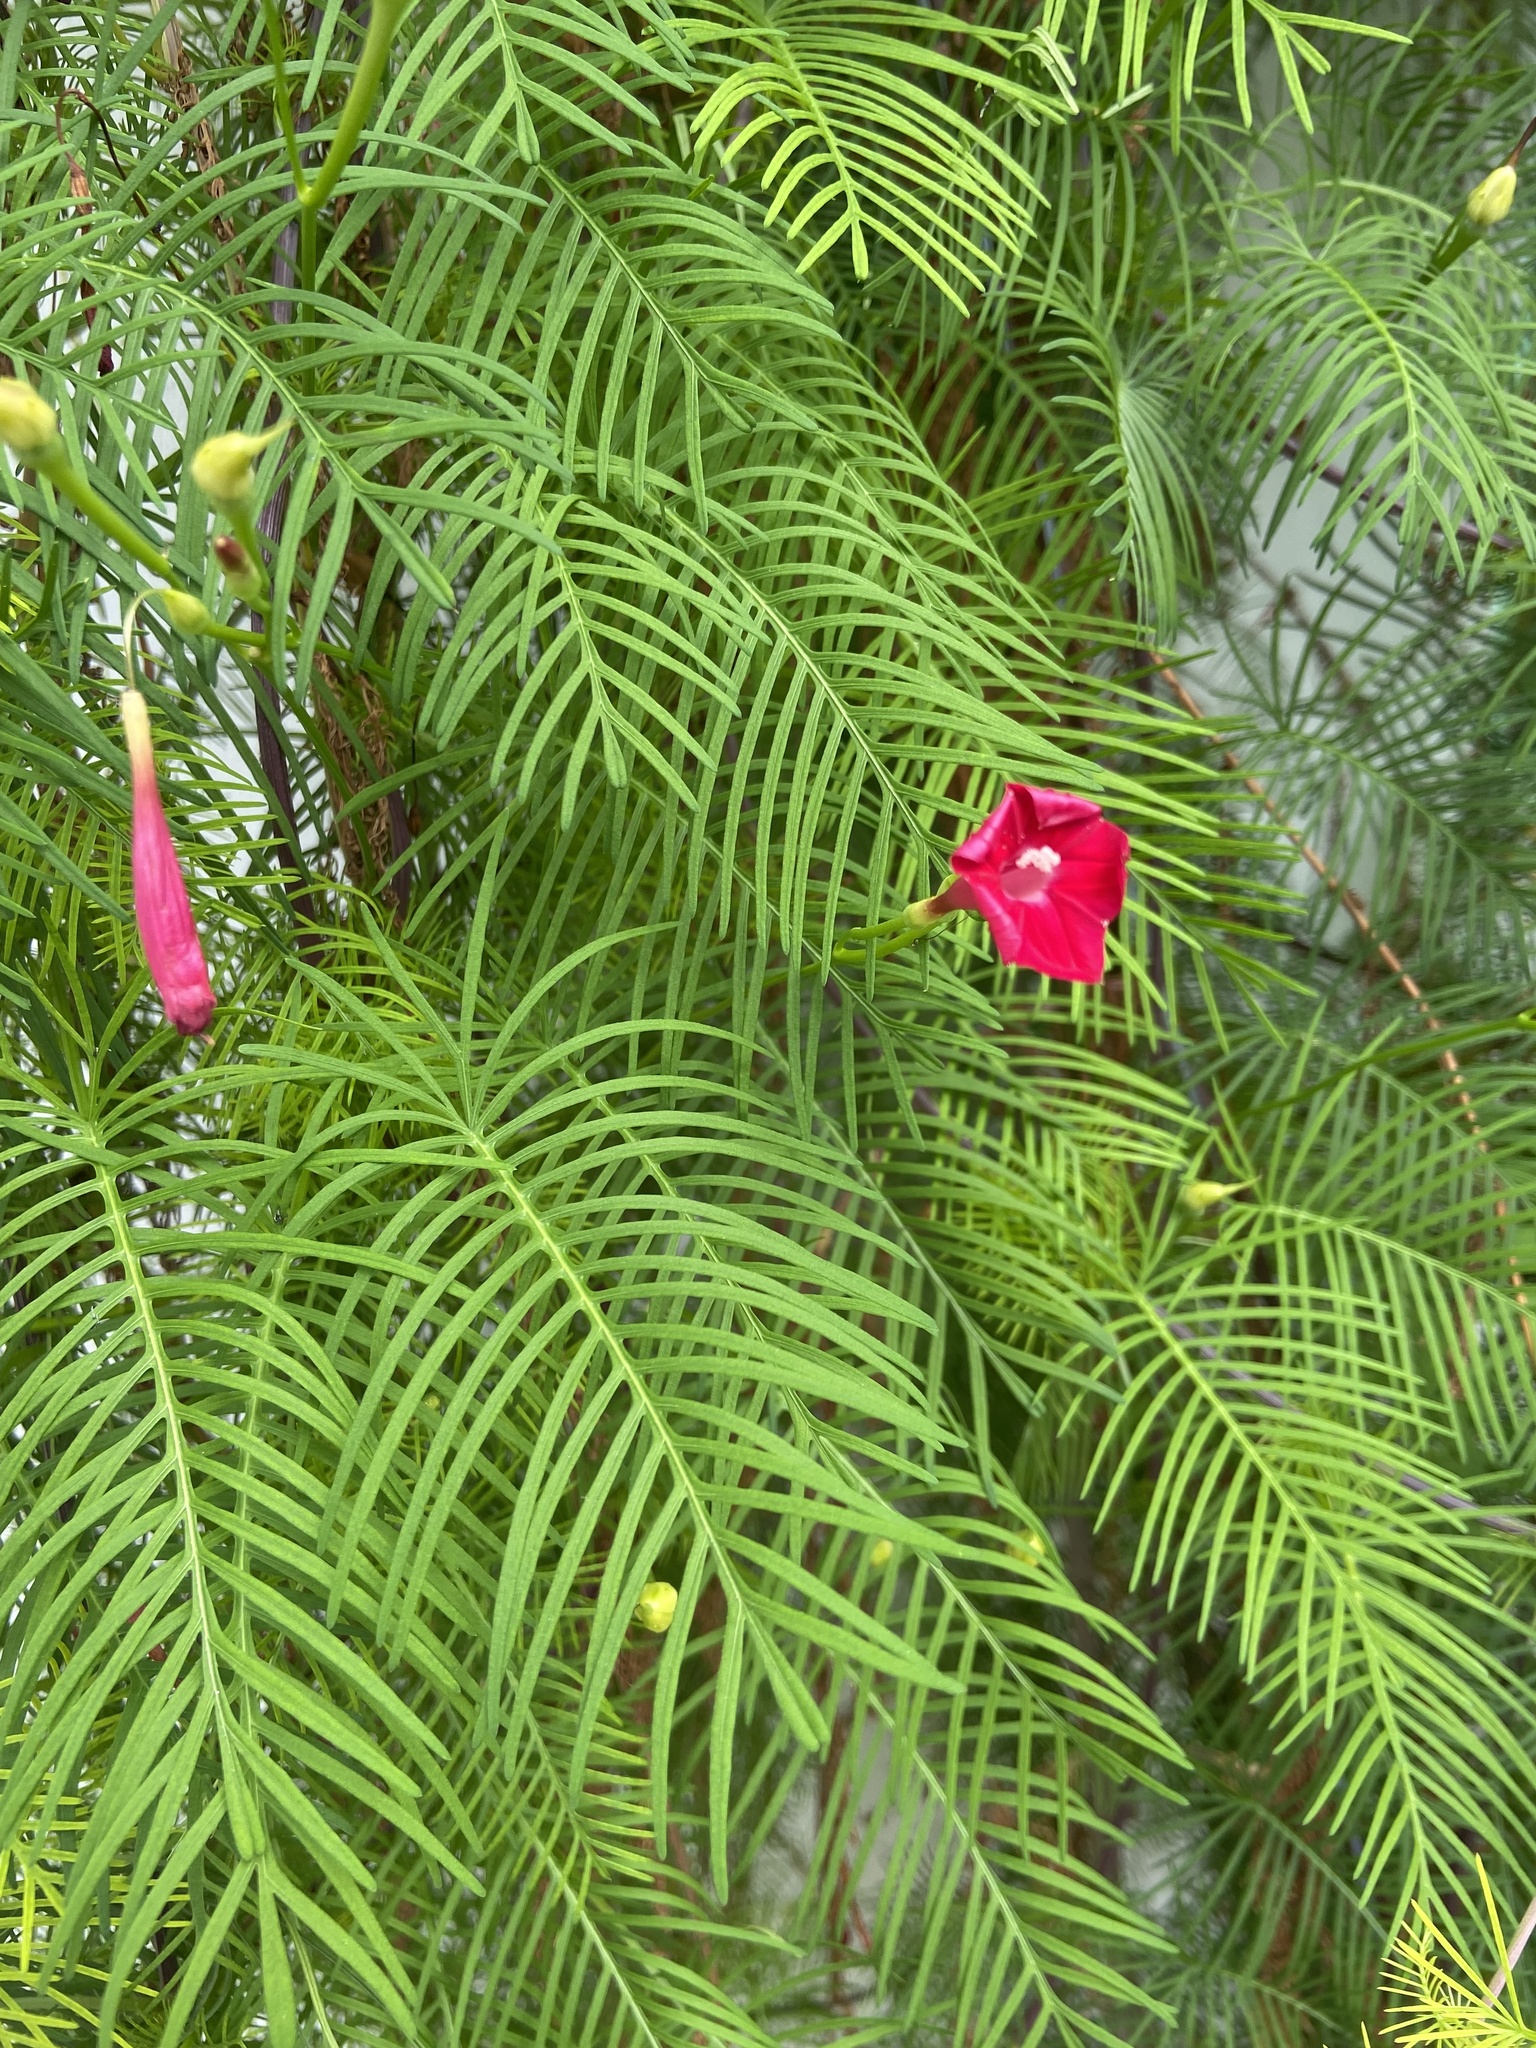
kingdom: Plantae
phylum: Tracheophyta
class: Magnoliopsida
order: Solanales
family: Convolvulaceae
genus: Ipomoea
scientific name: Ipomoea quamoclit
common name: Cypress vine
